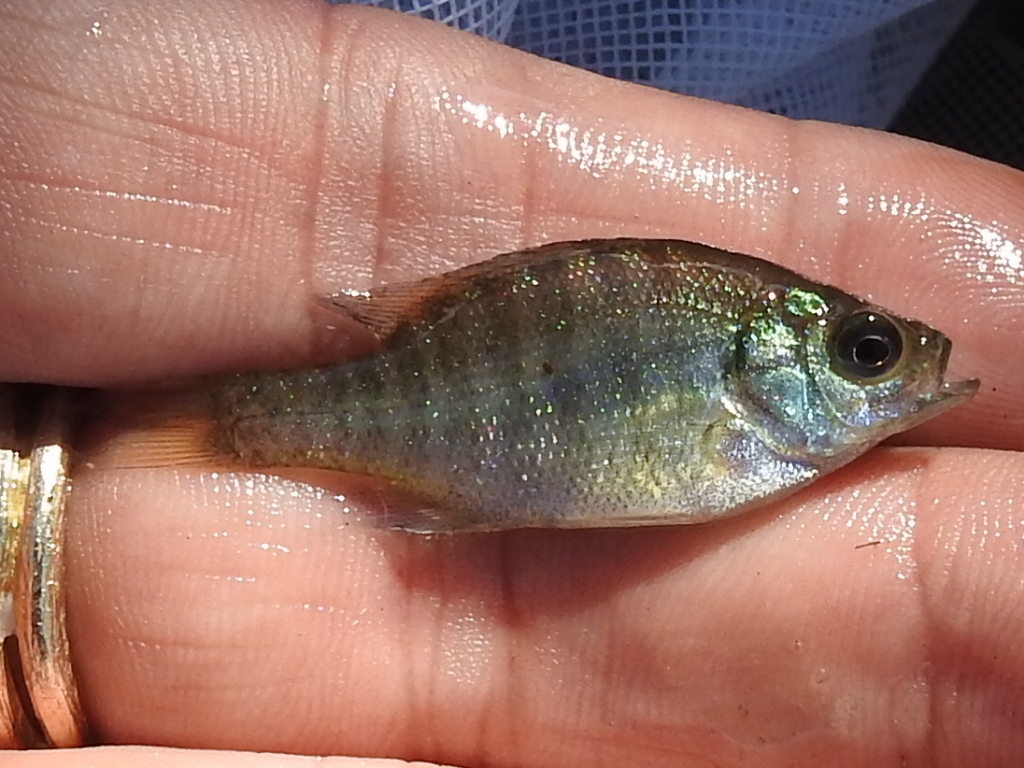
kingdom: Animalia
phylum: Chordata
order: Perciformes
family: Centrarchidae
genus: Lepomis
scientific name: Lepomis macrochirus
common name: Bluegill
